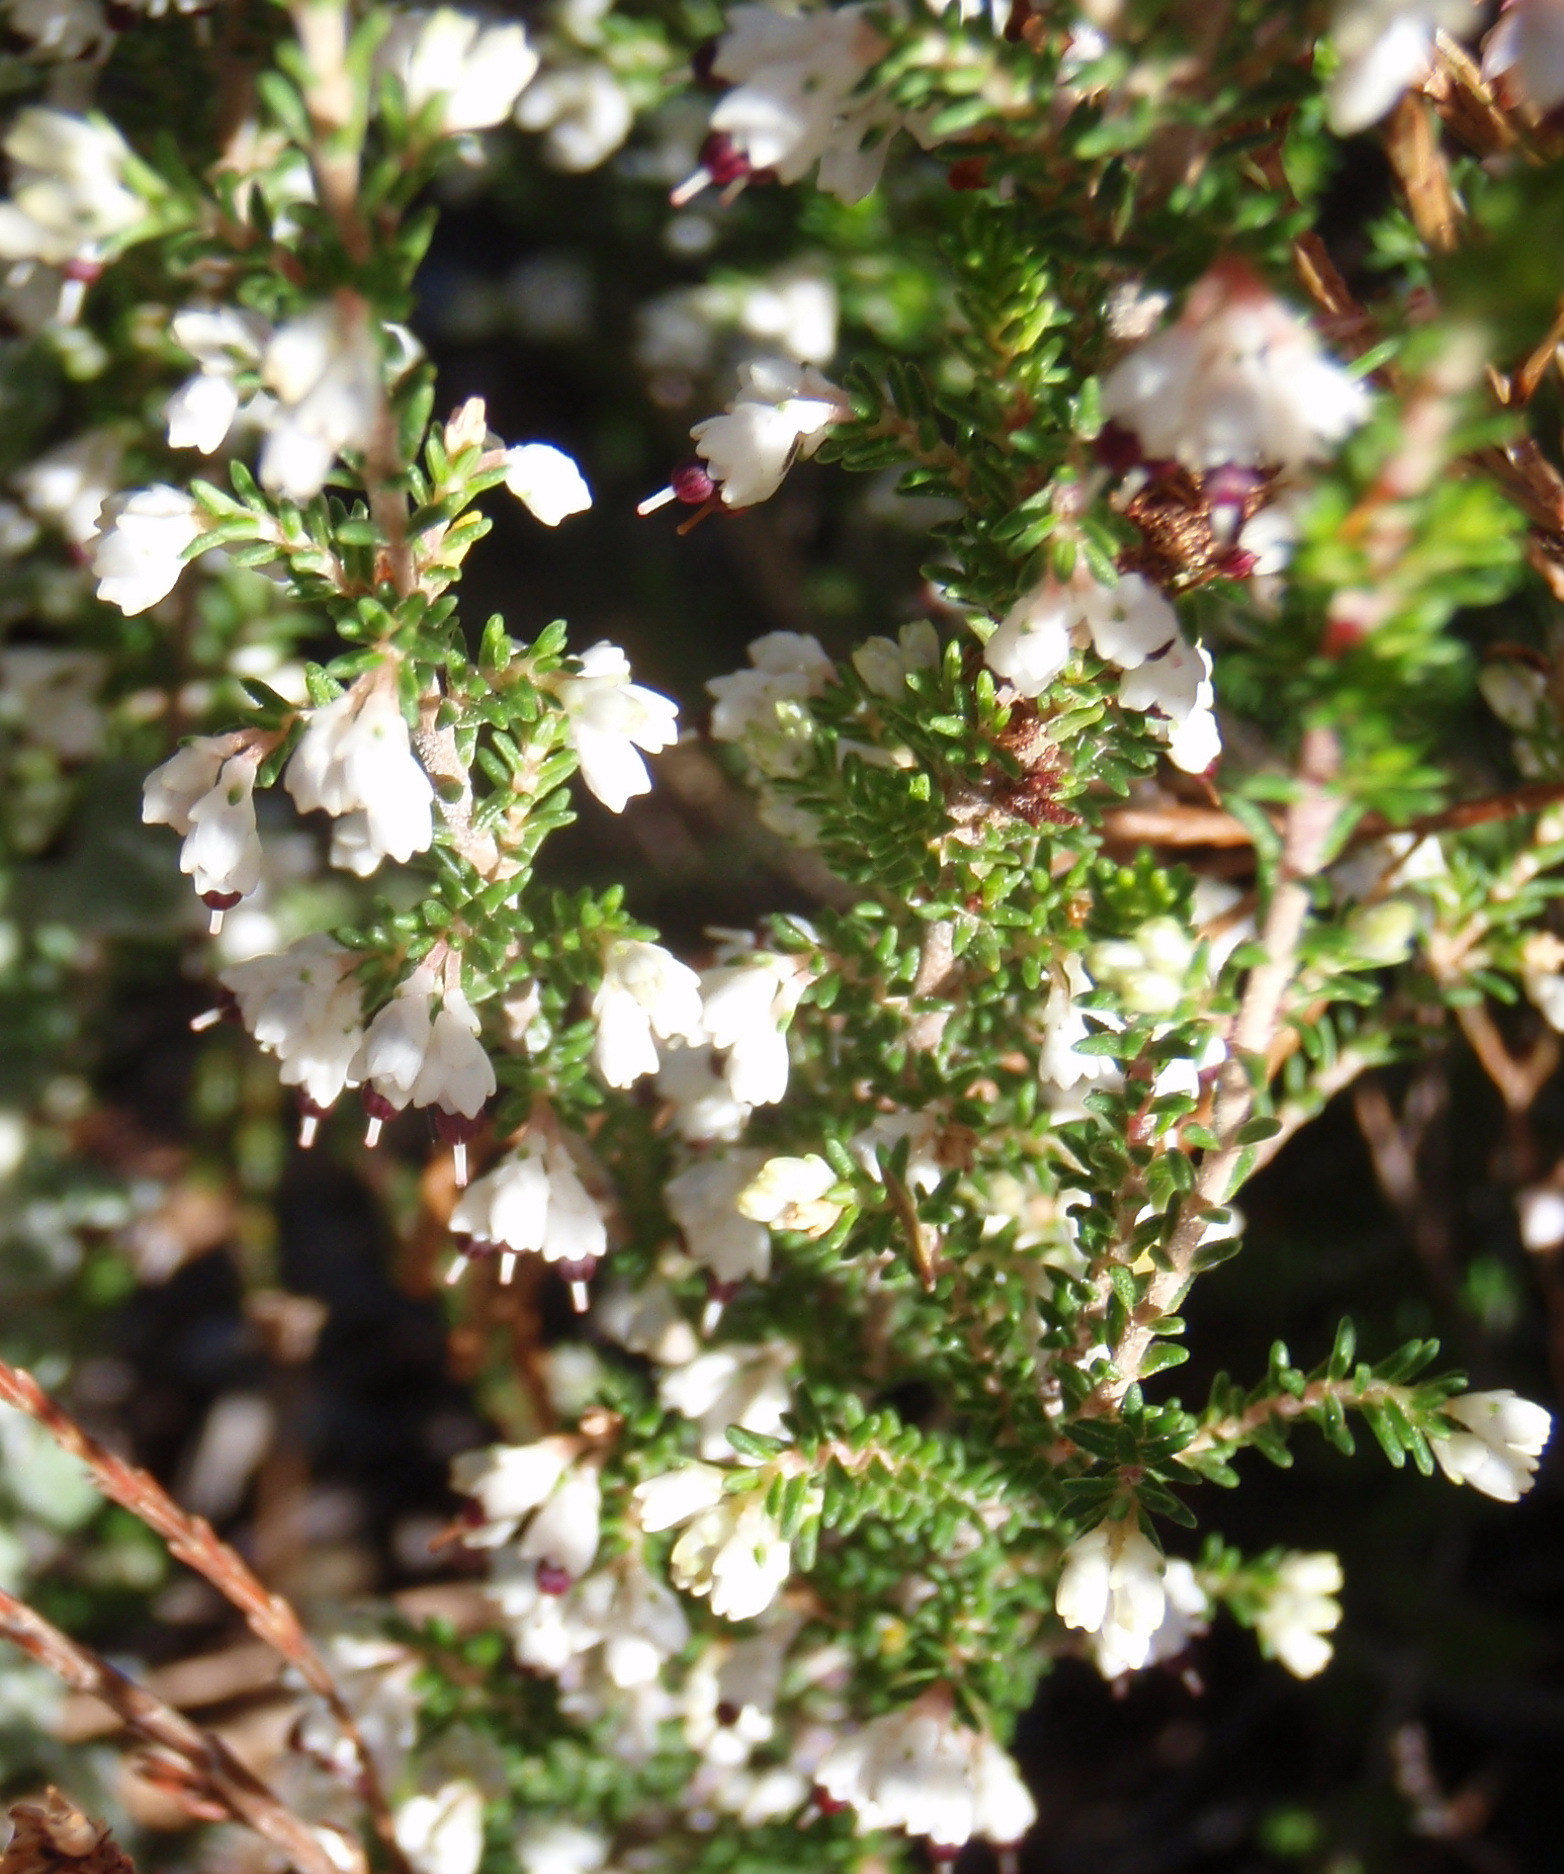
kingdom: Plantae
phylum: Tracheophyta
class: Magnoliopsida
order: Ericales
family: Ericaceae
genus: Erica
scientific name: Erica imbricata
